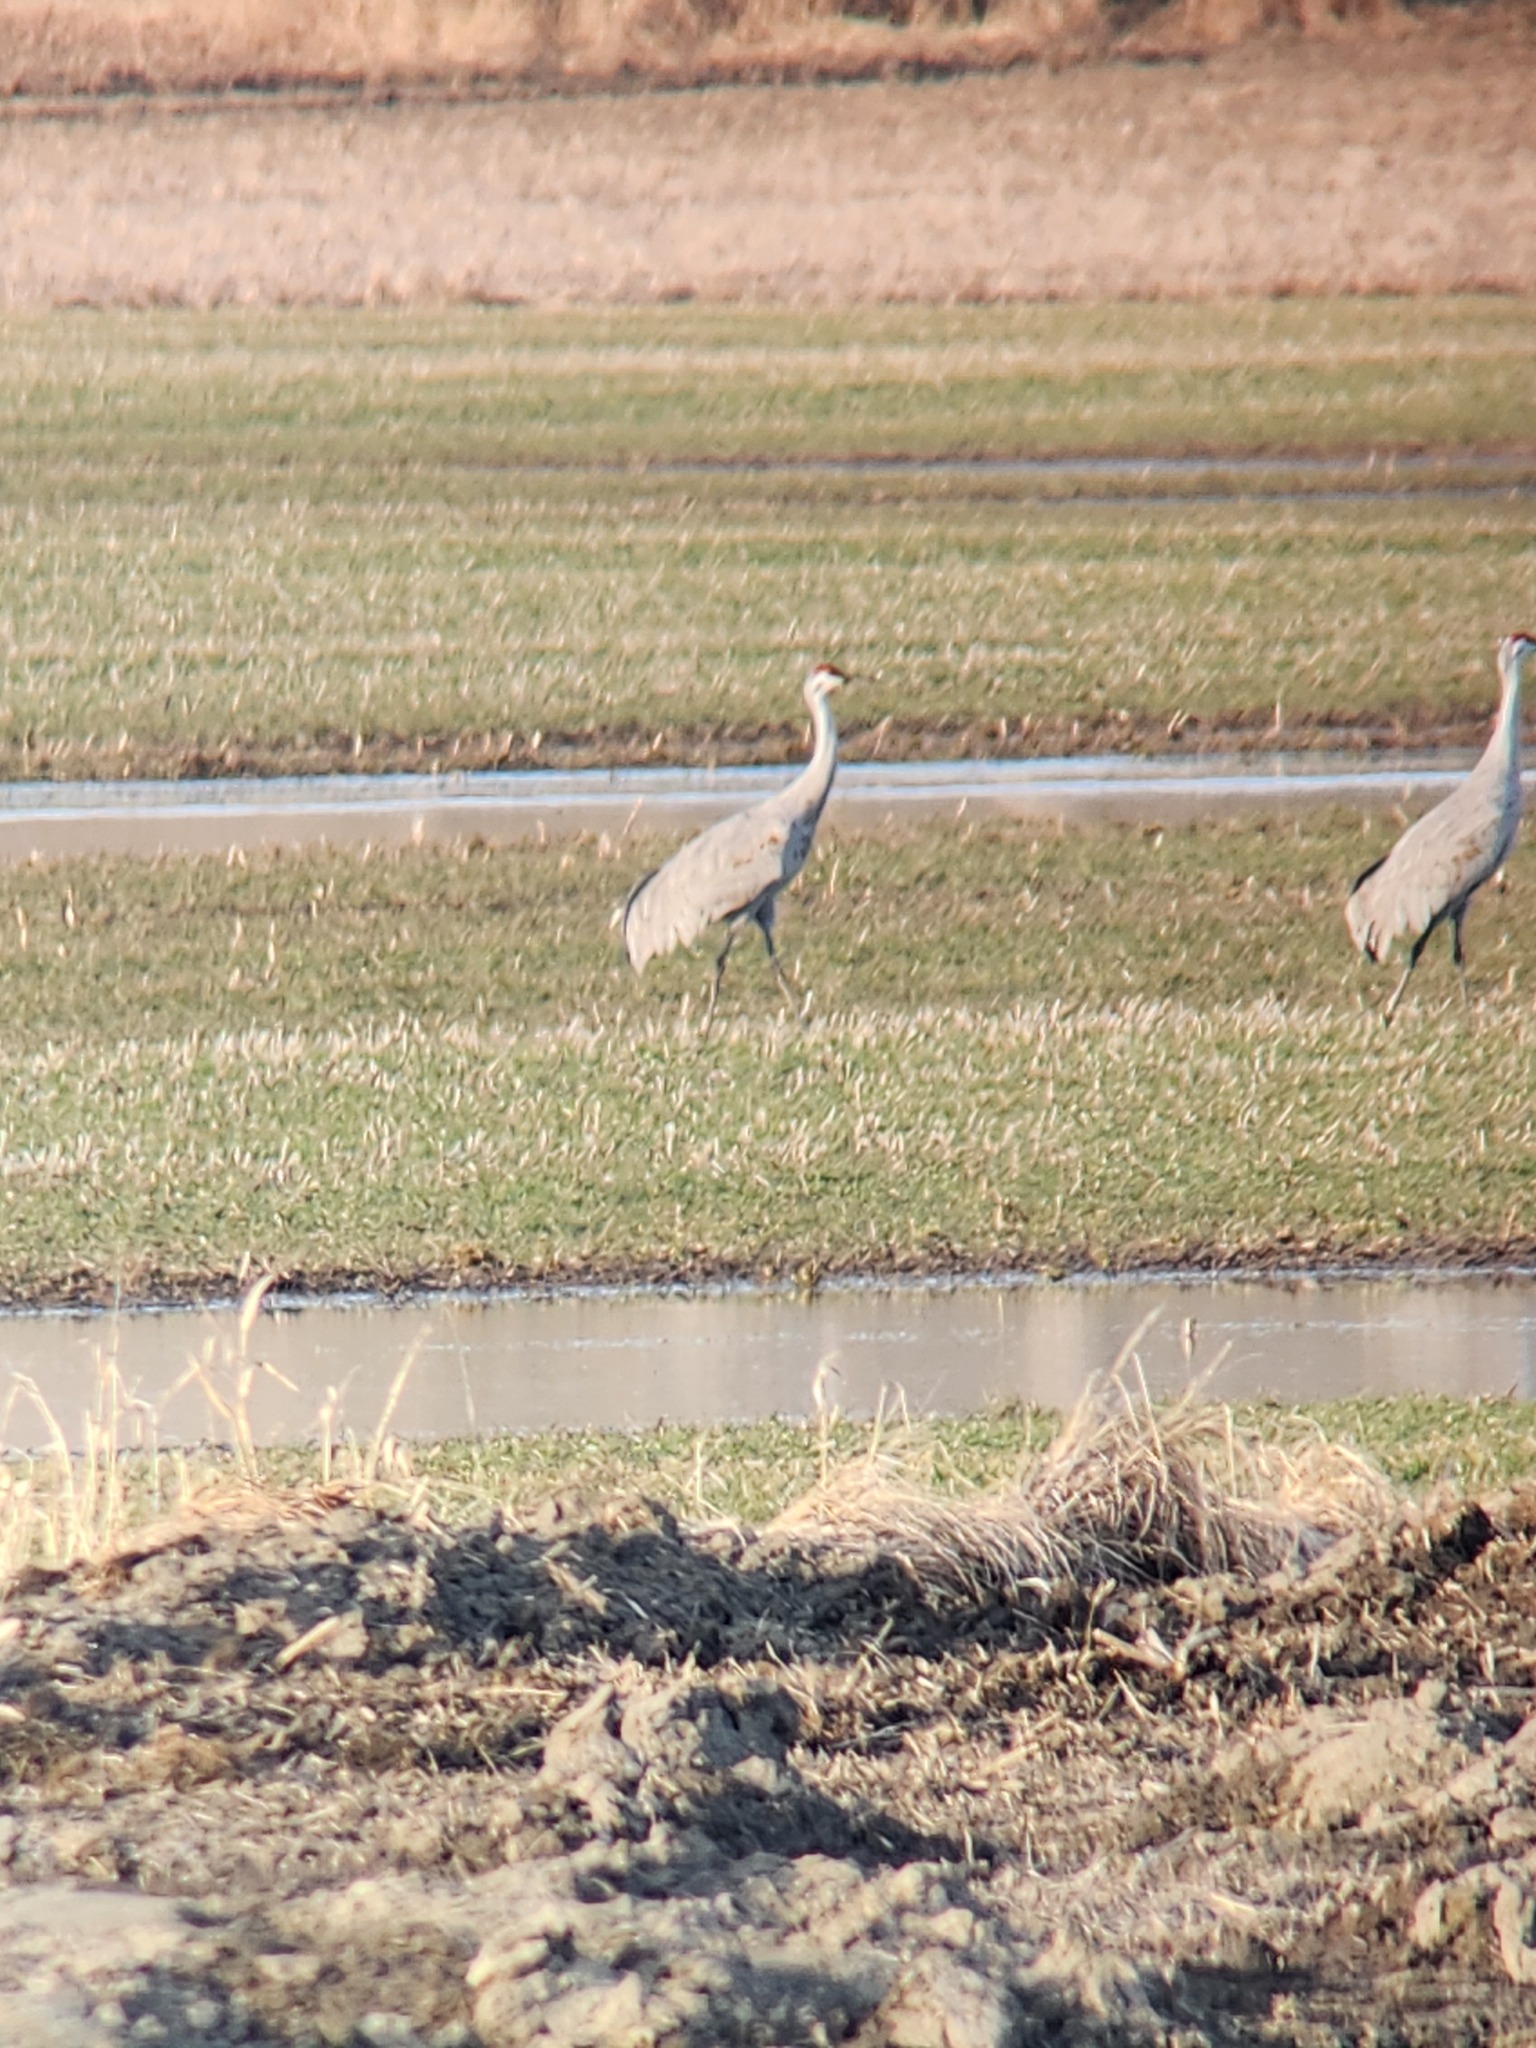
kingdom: Animalia
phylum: Chordata
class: Aves
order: Gruiformes
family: Gruidae
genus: Grus
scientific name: Grus canadensis
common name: Sandhill crane
